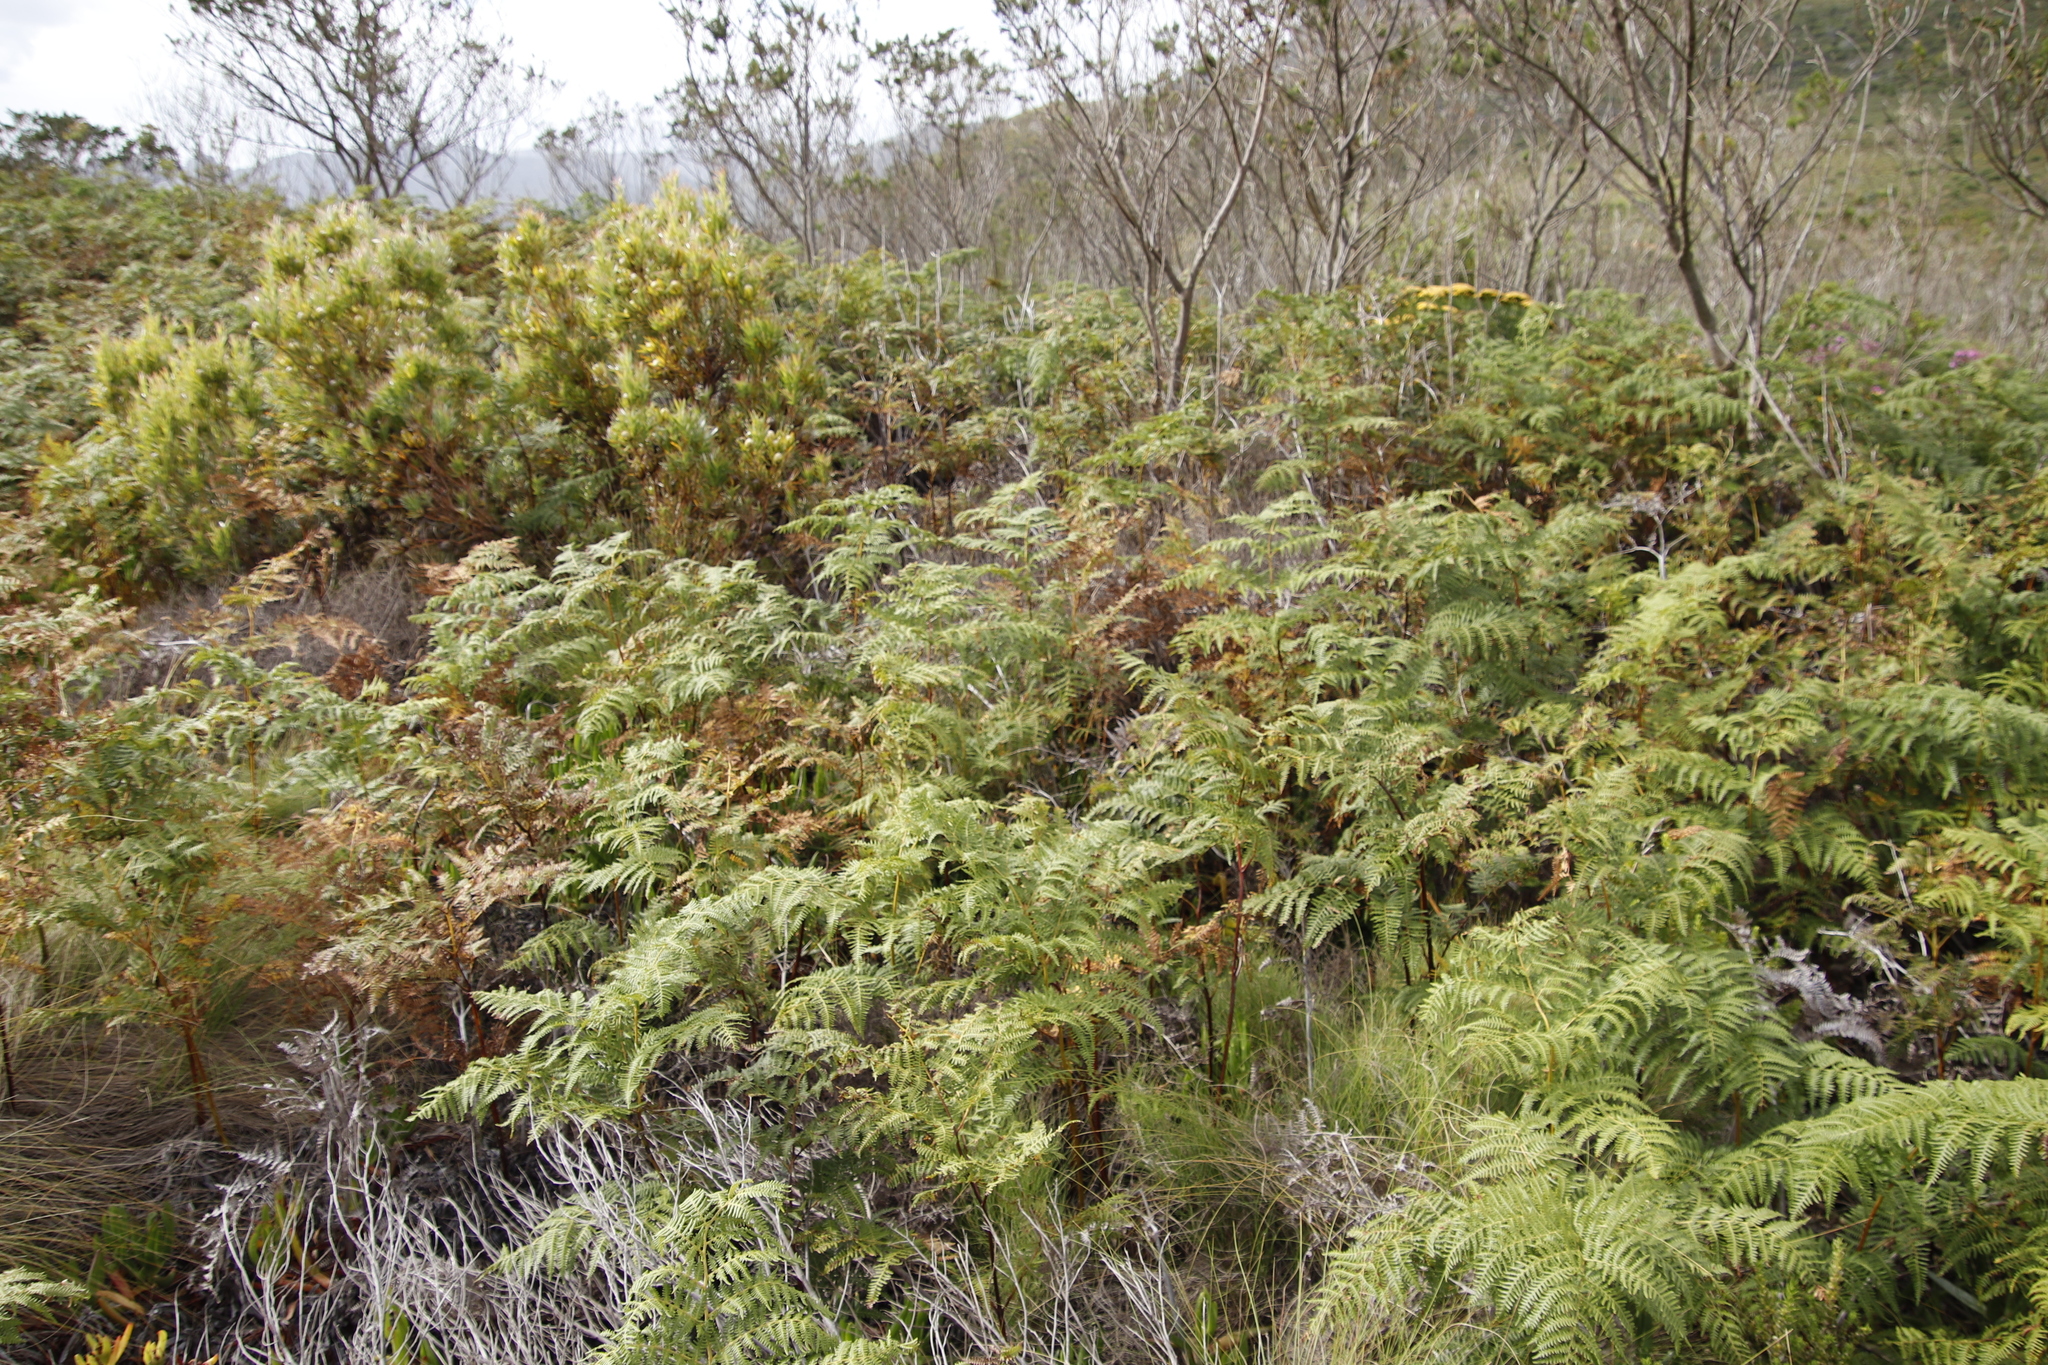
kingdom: Plantae
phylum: Tracheophyta
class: Polypodiopsida
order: Polypodiales
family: Dennstaedtiaceae
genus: Pteridium
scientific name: Pteridium aquilinum
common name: Bracken
